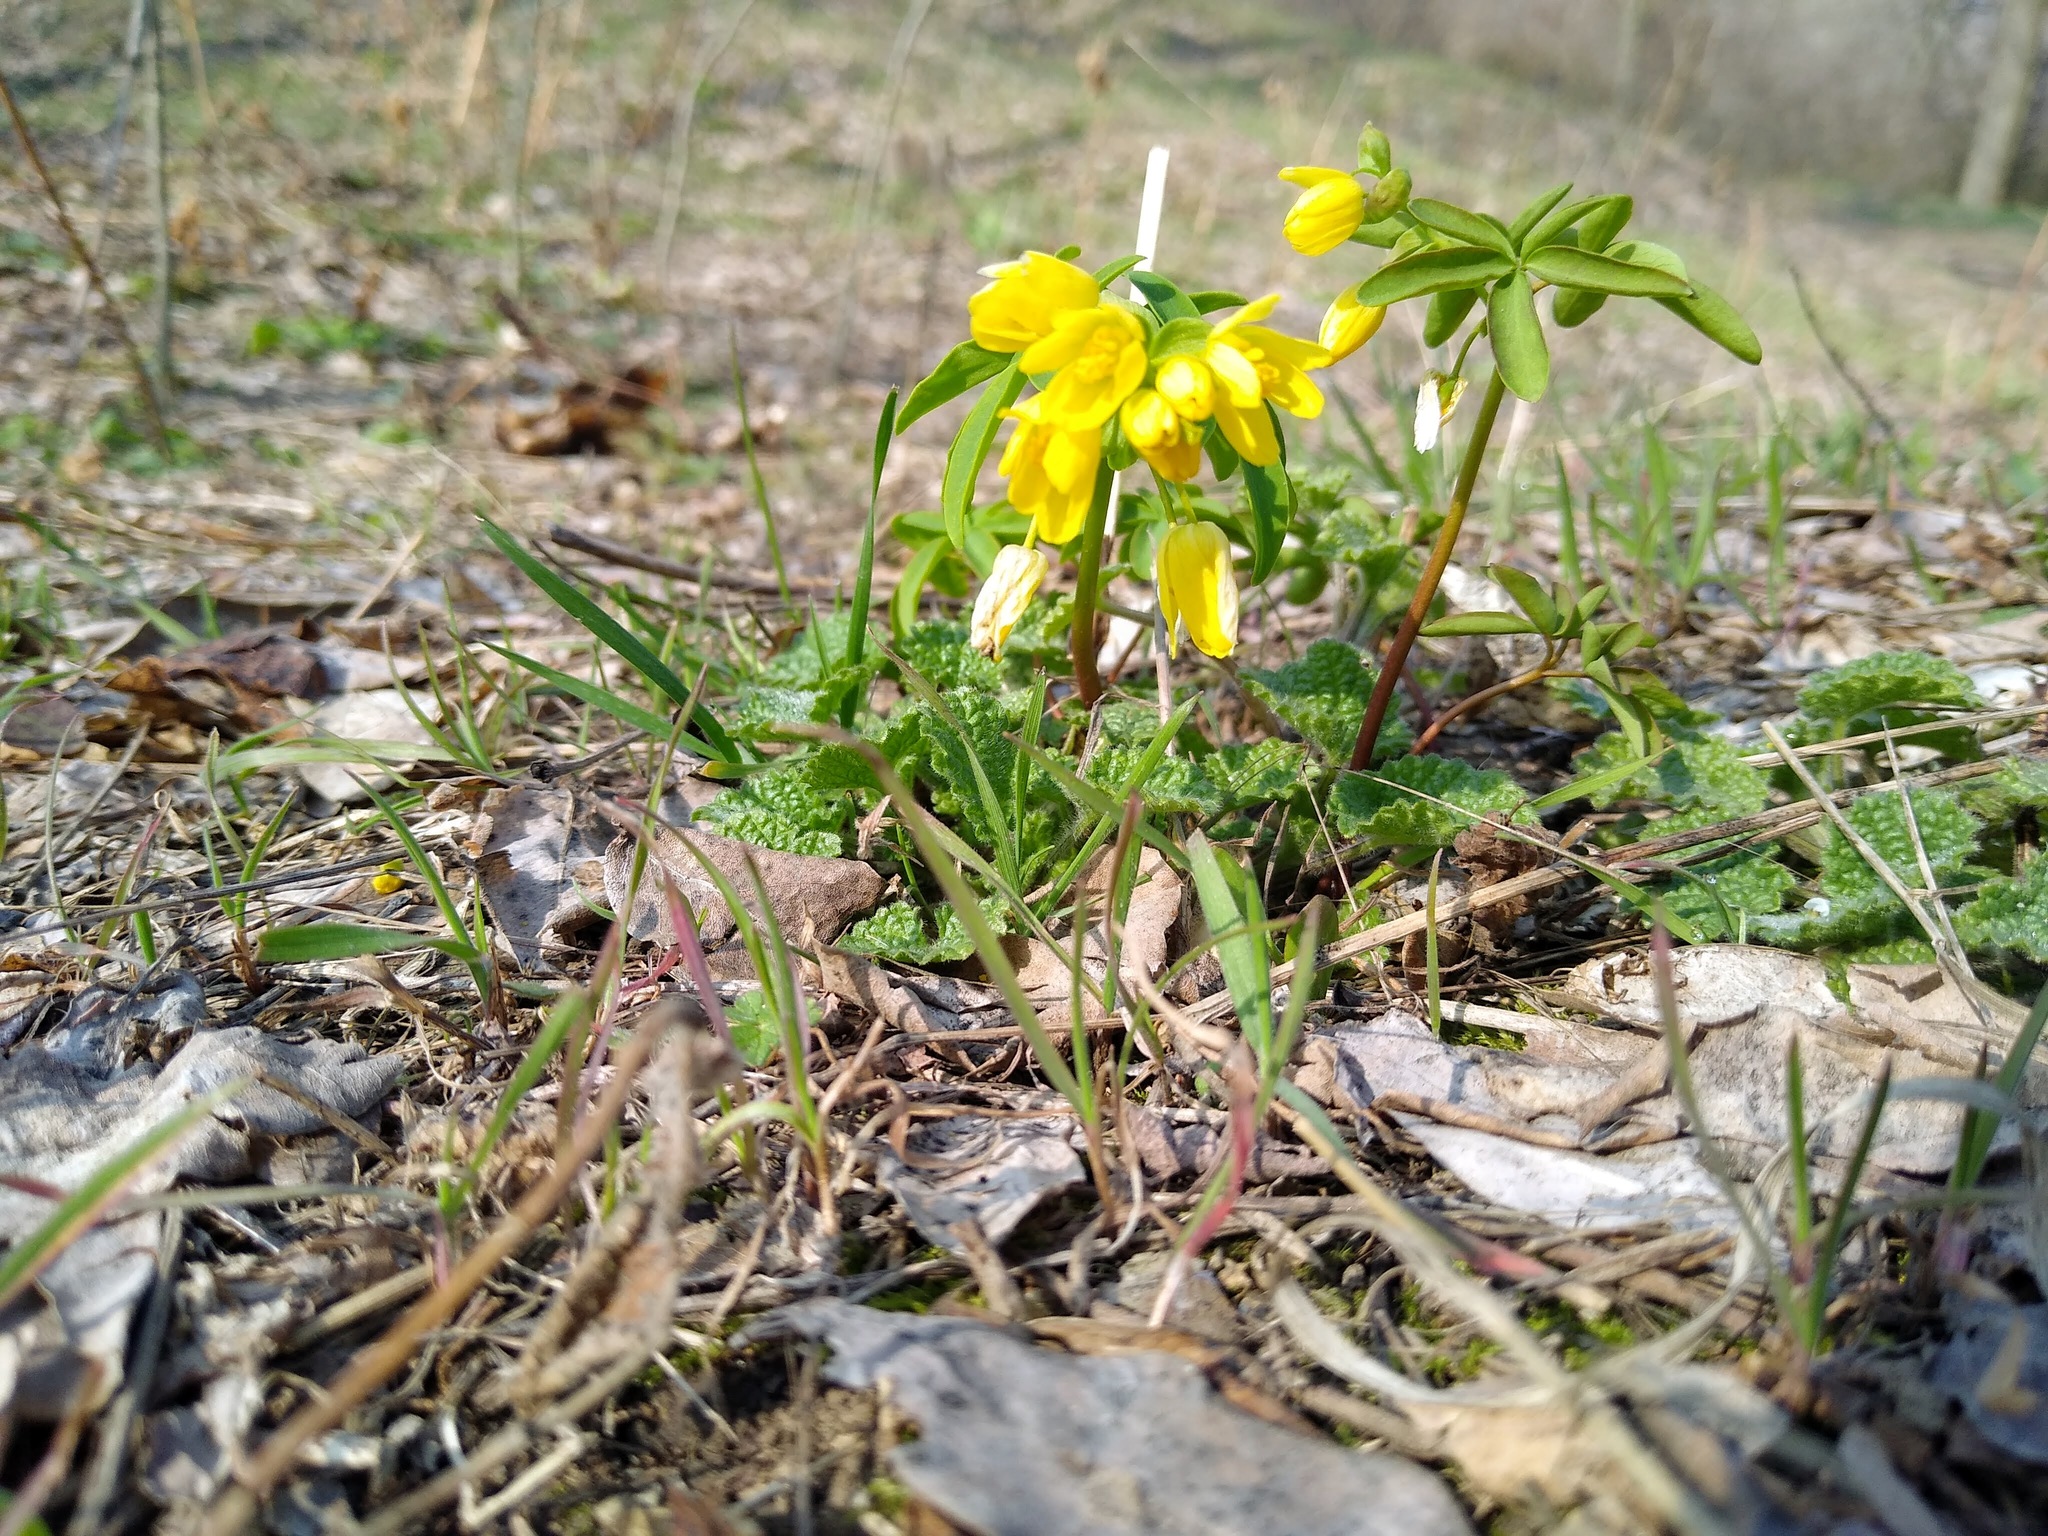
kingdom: Plantae
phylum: Tracheophyta
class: Magnoliopsida
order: Ranunculales
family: Berberidaceae
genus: Gymnospermium
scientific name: Gymnospermium odessanum
